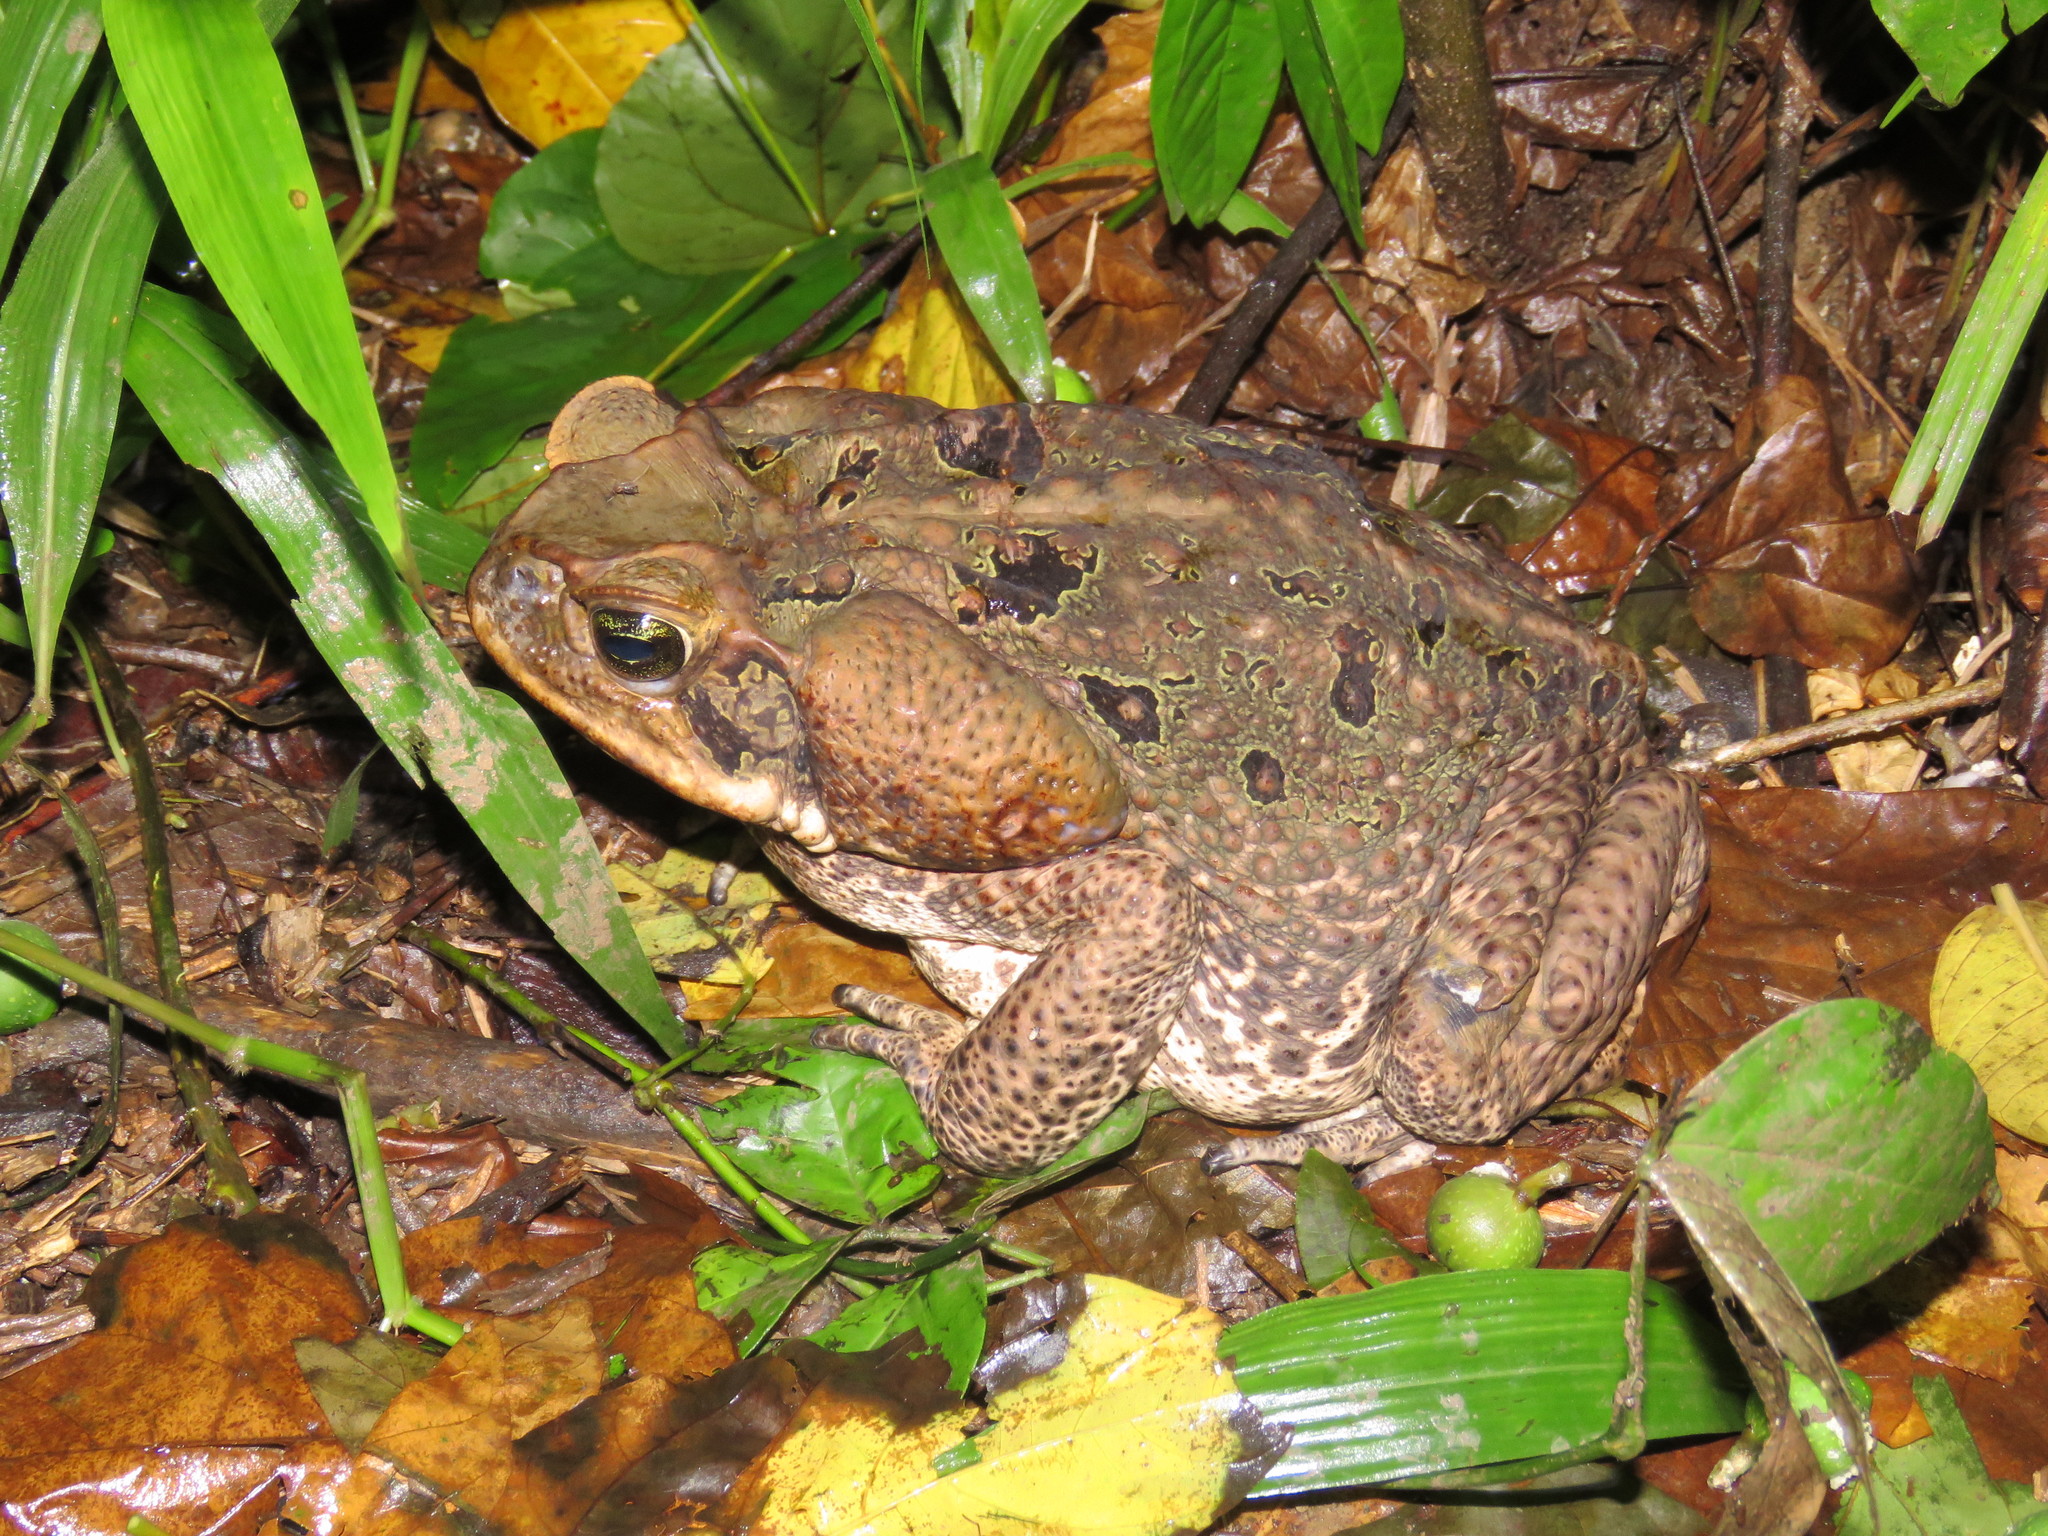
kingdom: Animalia
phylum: Chordata
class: Amphibia
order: Anura
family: Bufonidae
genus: Rhinella
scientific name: Rhinella marina
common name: Cane toad
